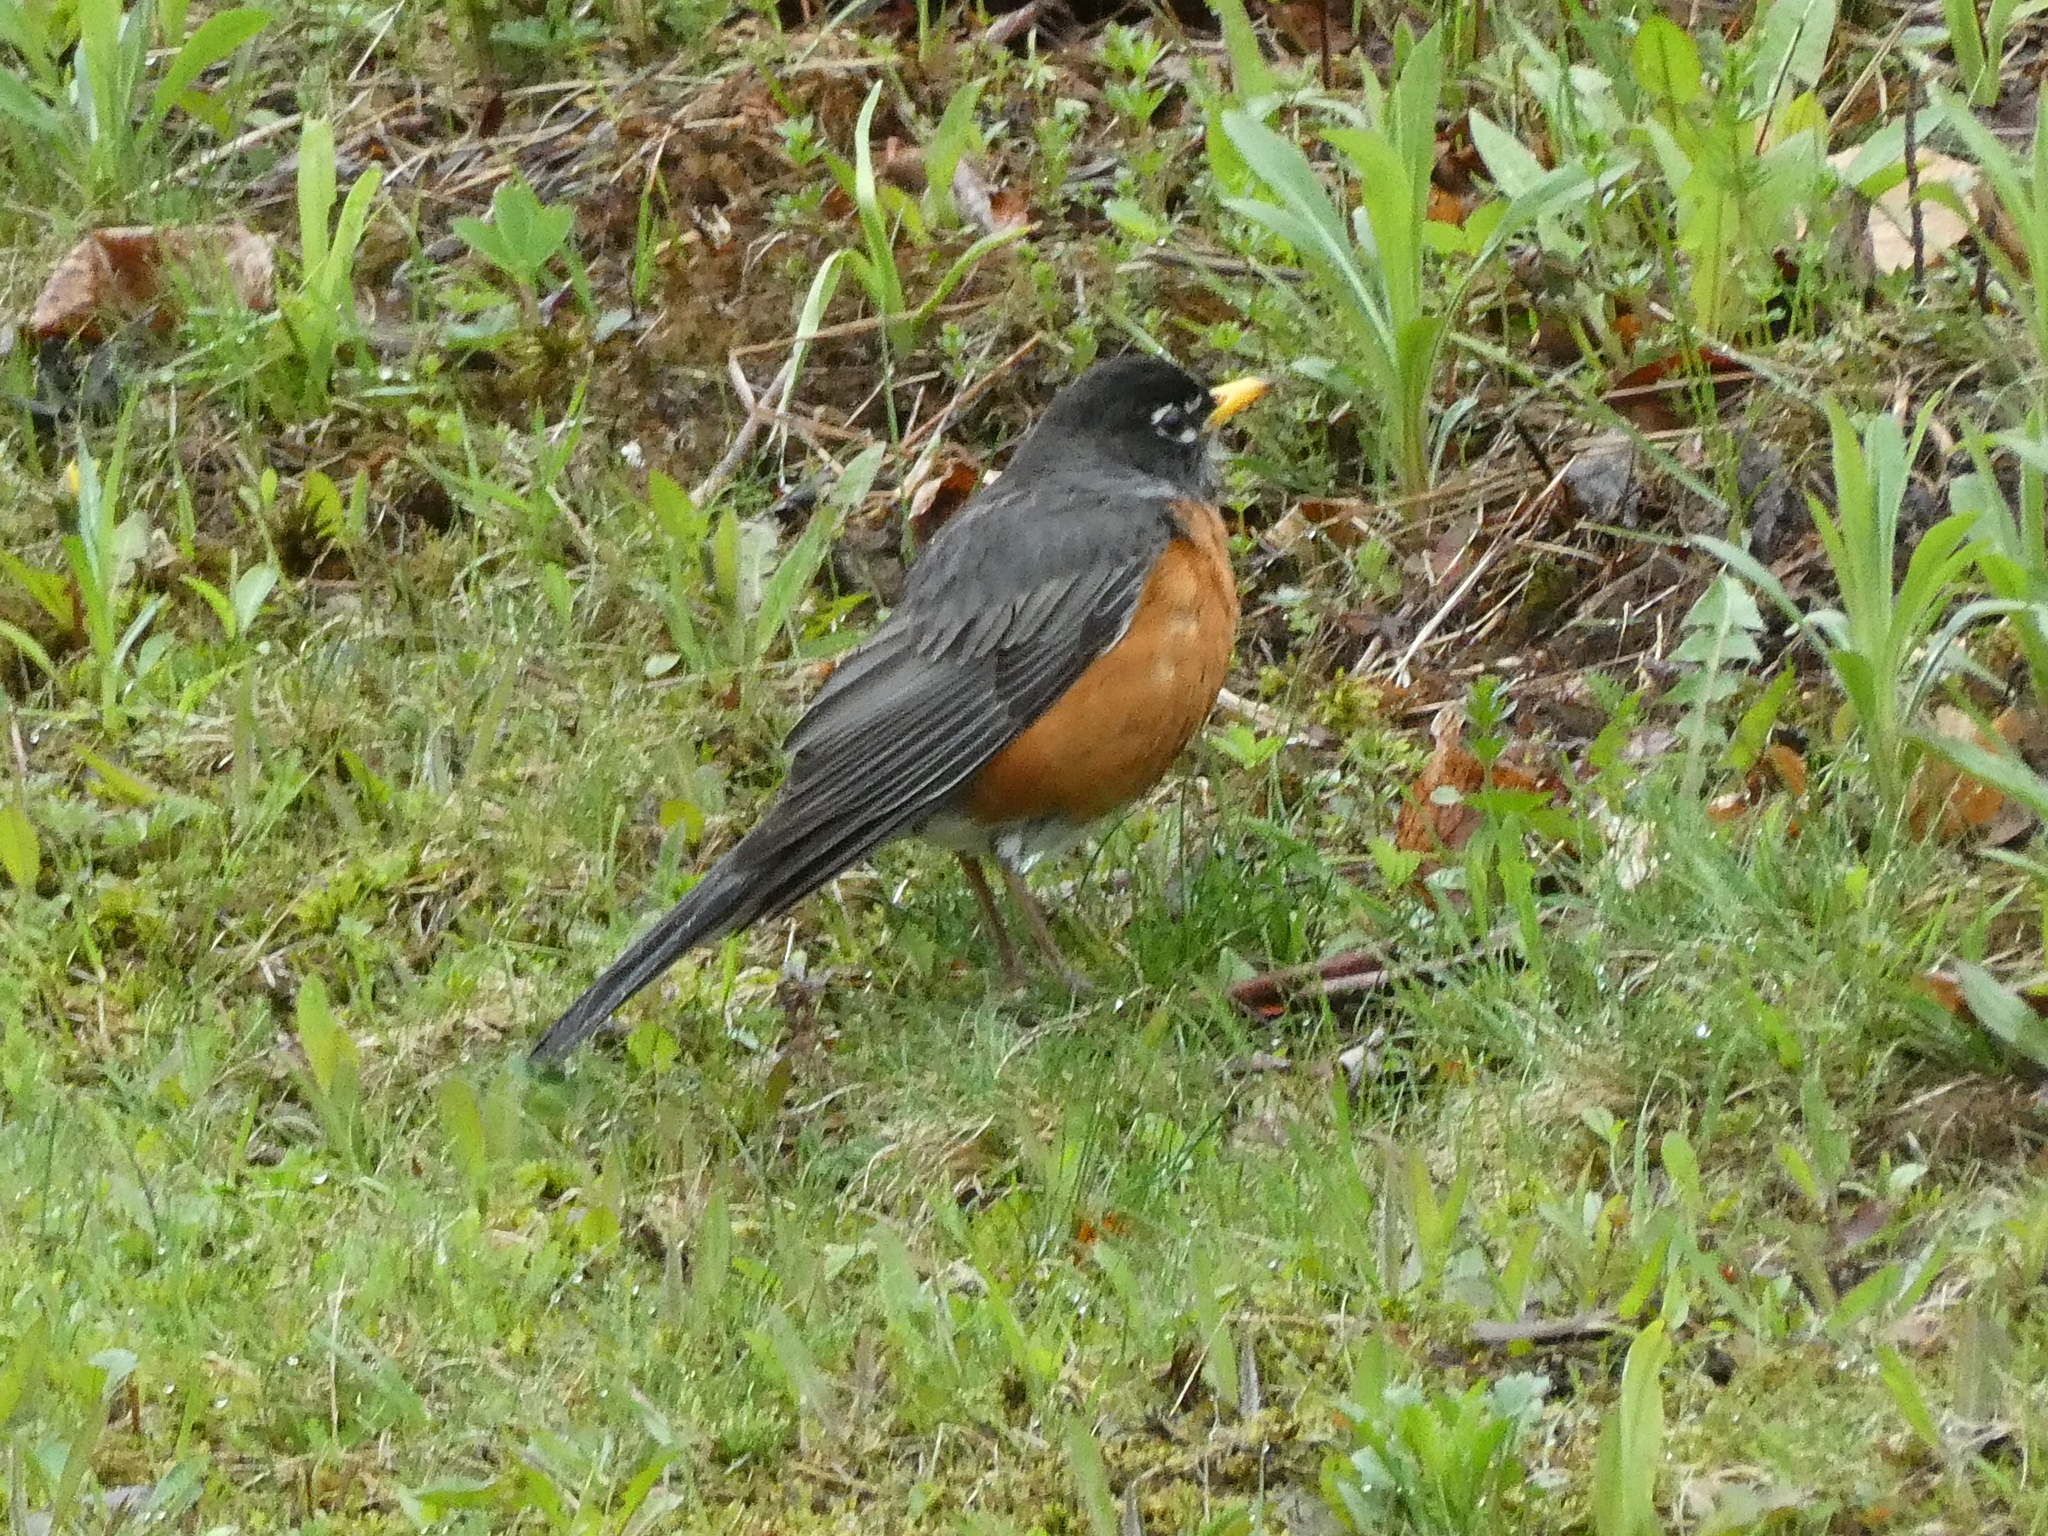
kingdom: Animalia
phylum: Chordata
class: Aves
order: Passeriformes
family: Turdidae
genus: Turdus
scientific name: Turdus migratorius
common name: American robin
